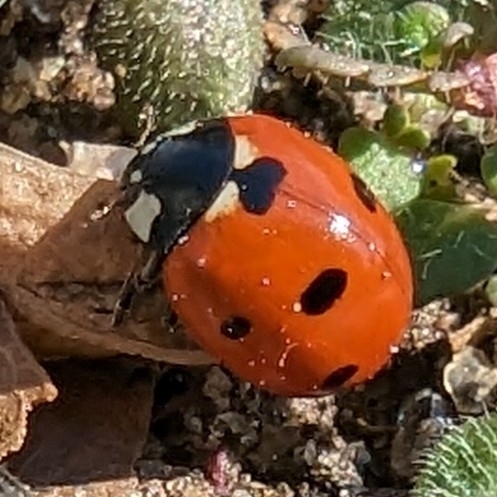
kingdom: Animalia
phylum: Arthropoda
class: Insecta
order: Coleoptera
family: Coccinellidae
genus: Coccinella
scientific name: Coccinella septempunctata
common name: Sevenspotted lady beetle
